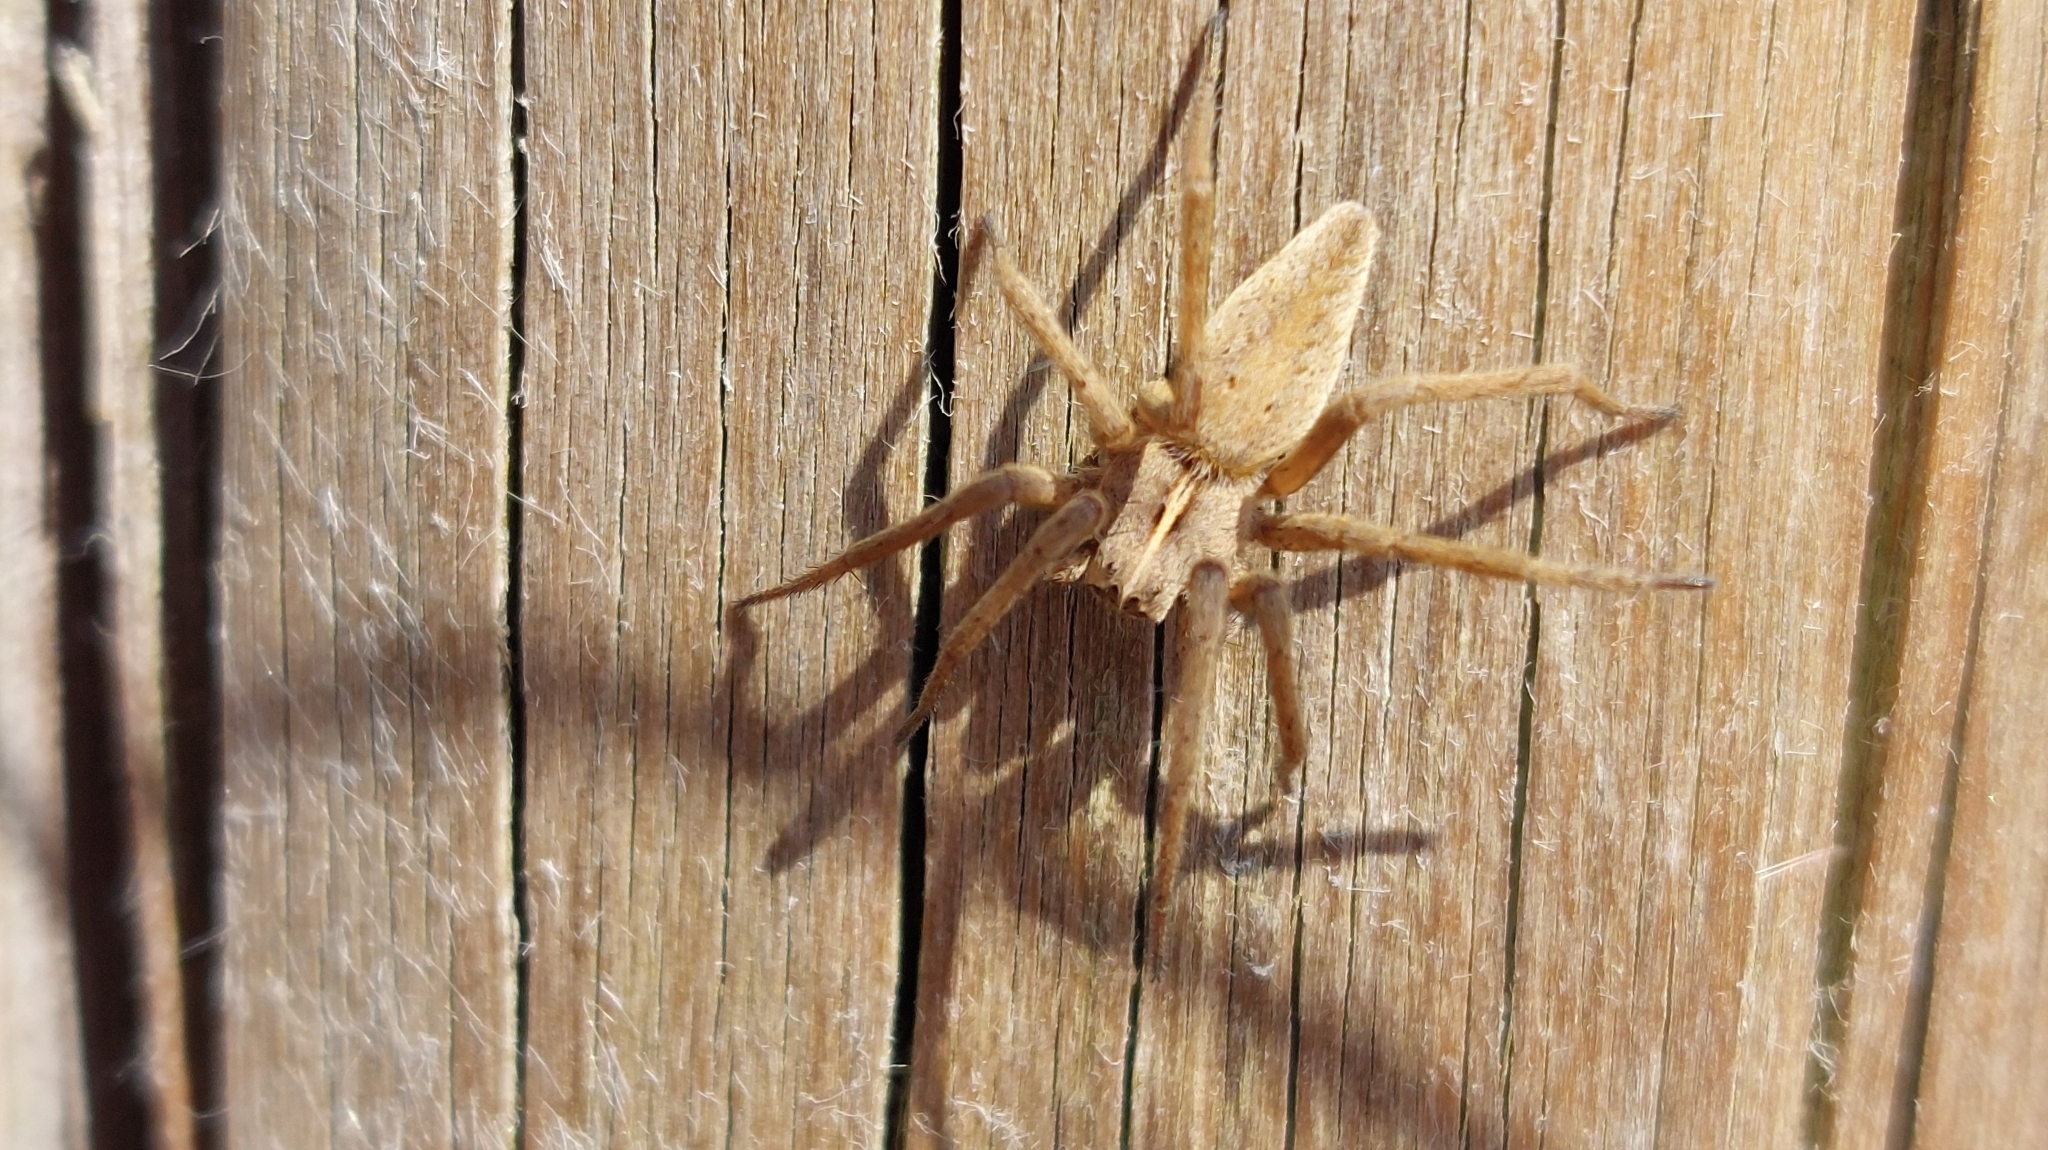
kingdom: Animalia
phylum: Arthropoda
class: Arachnida
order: Araneae
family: Pisauridae
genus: Pisaura
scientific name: Pisaura mirabilis
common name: Tent spider
